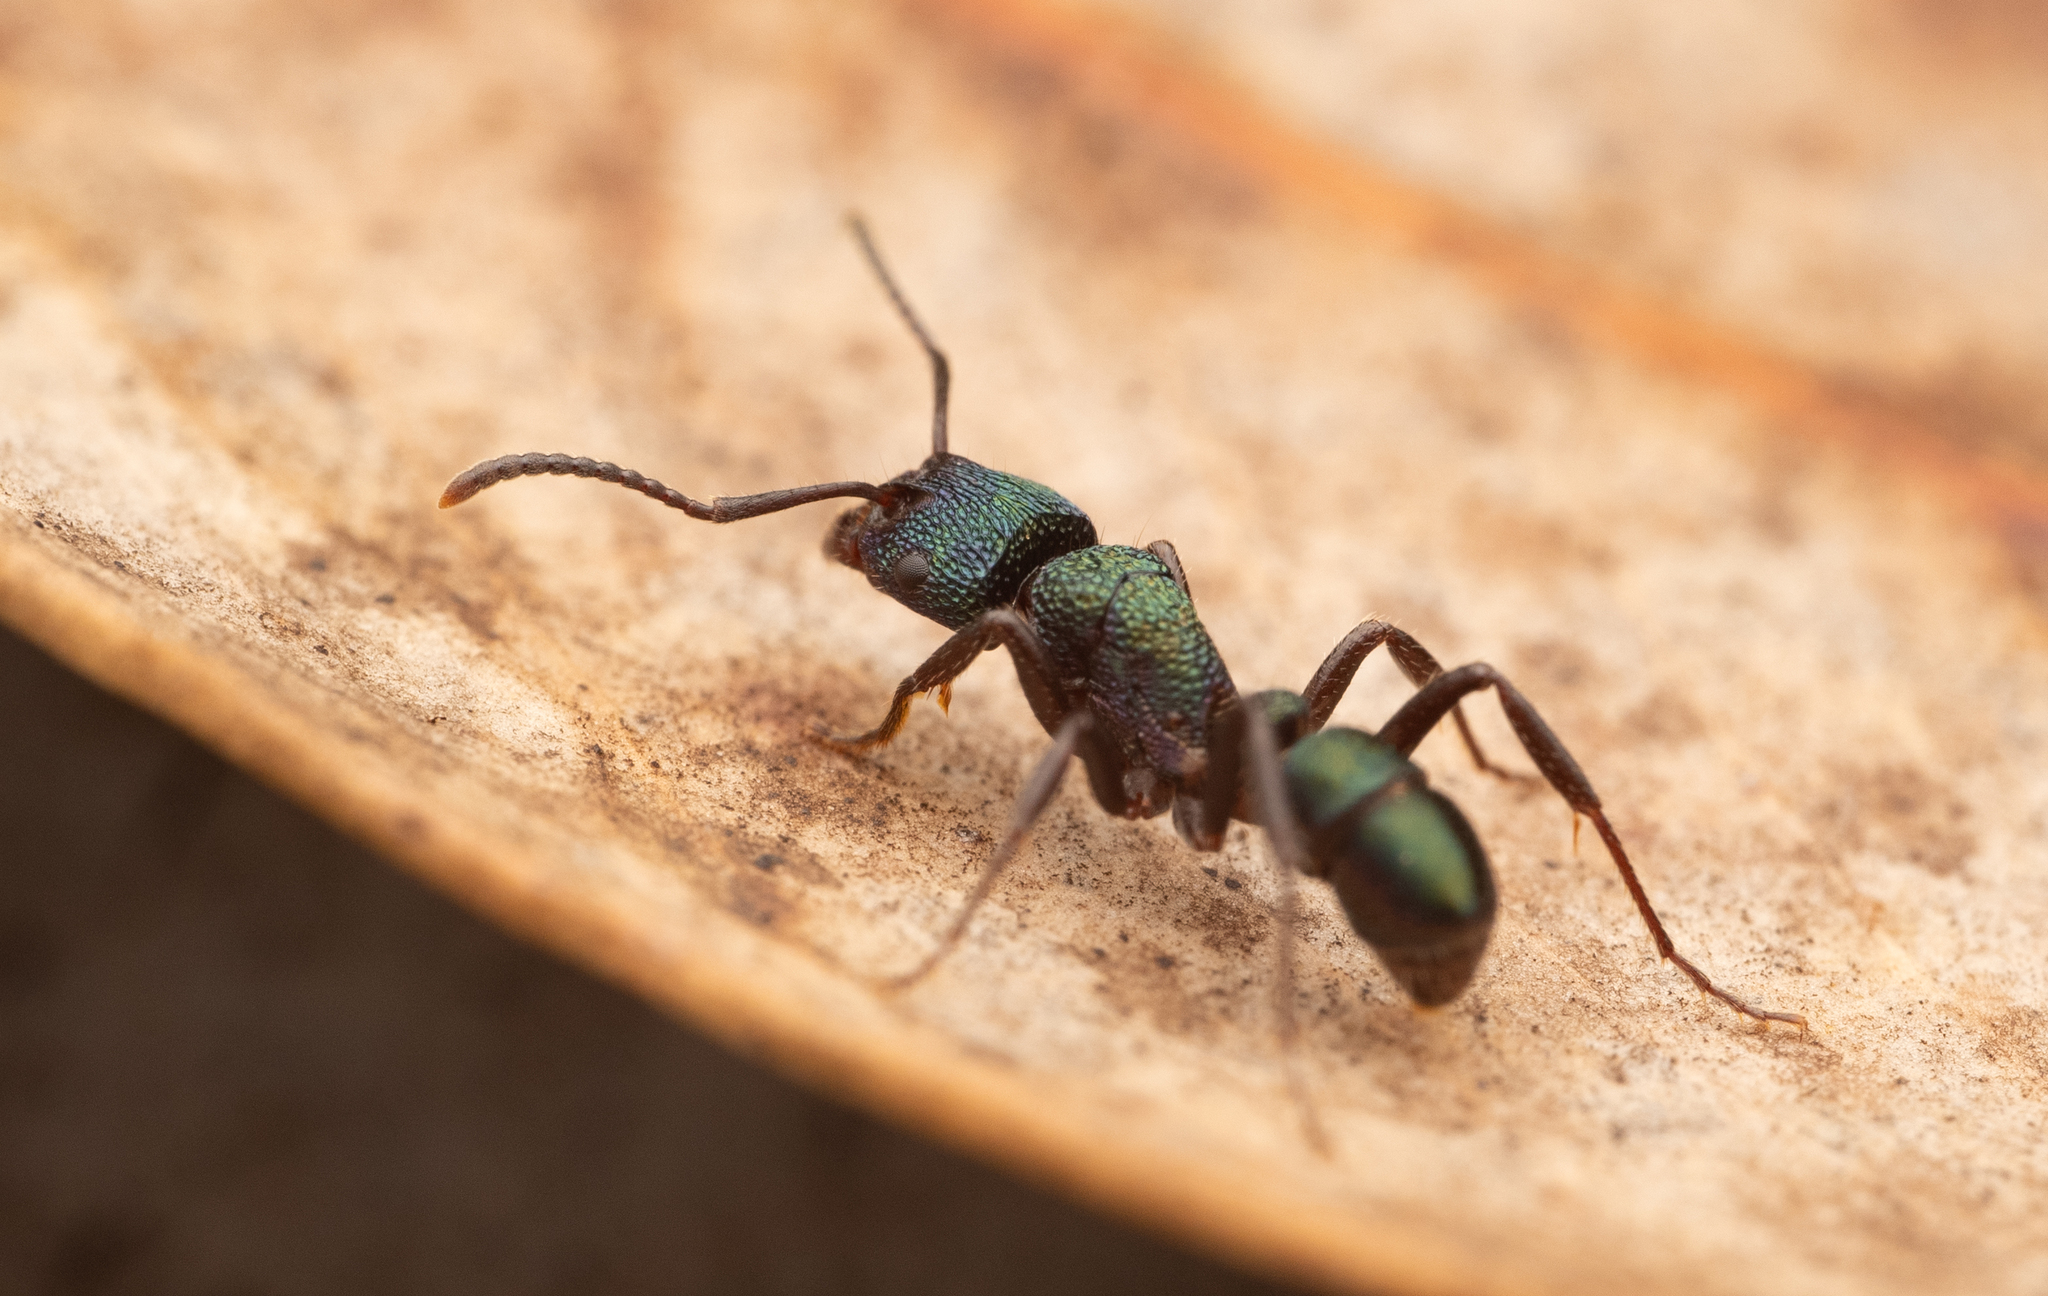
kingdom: Animalia
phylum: Arthropoda
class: Insecta
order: Hymenoptera
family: Formicidae
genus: Rhytidoponera
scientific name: Rhytidoponera metallica
